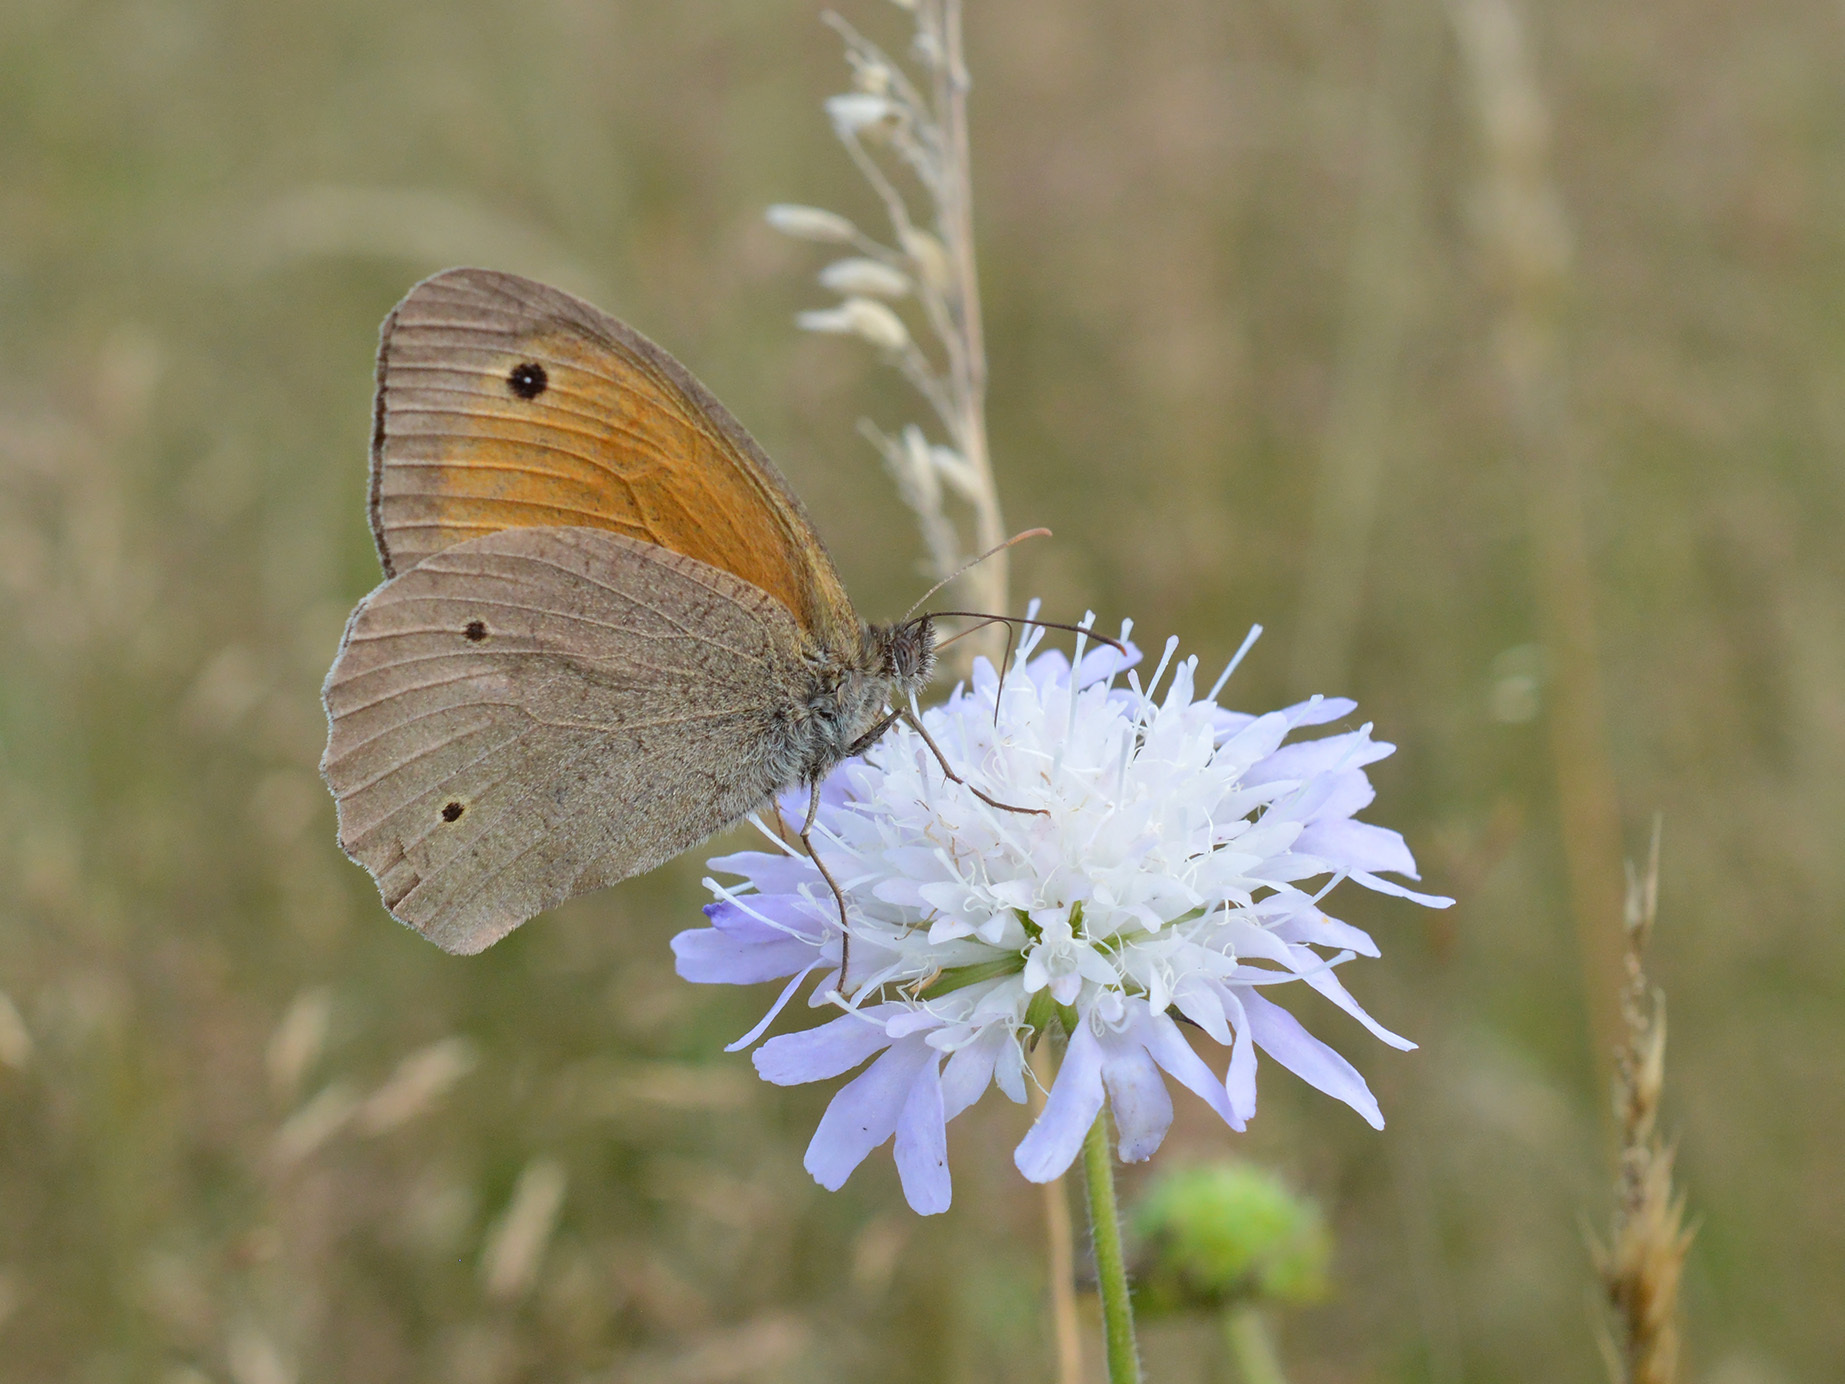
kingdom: Animalia
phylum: Arthropoda
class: Insecta
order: Lepidoptera
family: Nymphalidae
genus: Maniola
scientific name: Maniola jurtina
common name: Meadow brown
